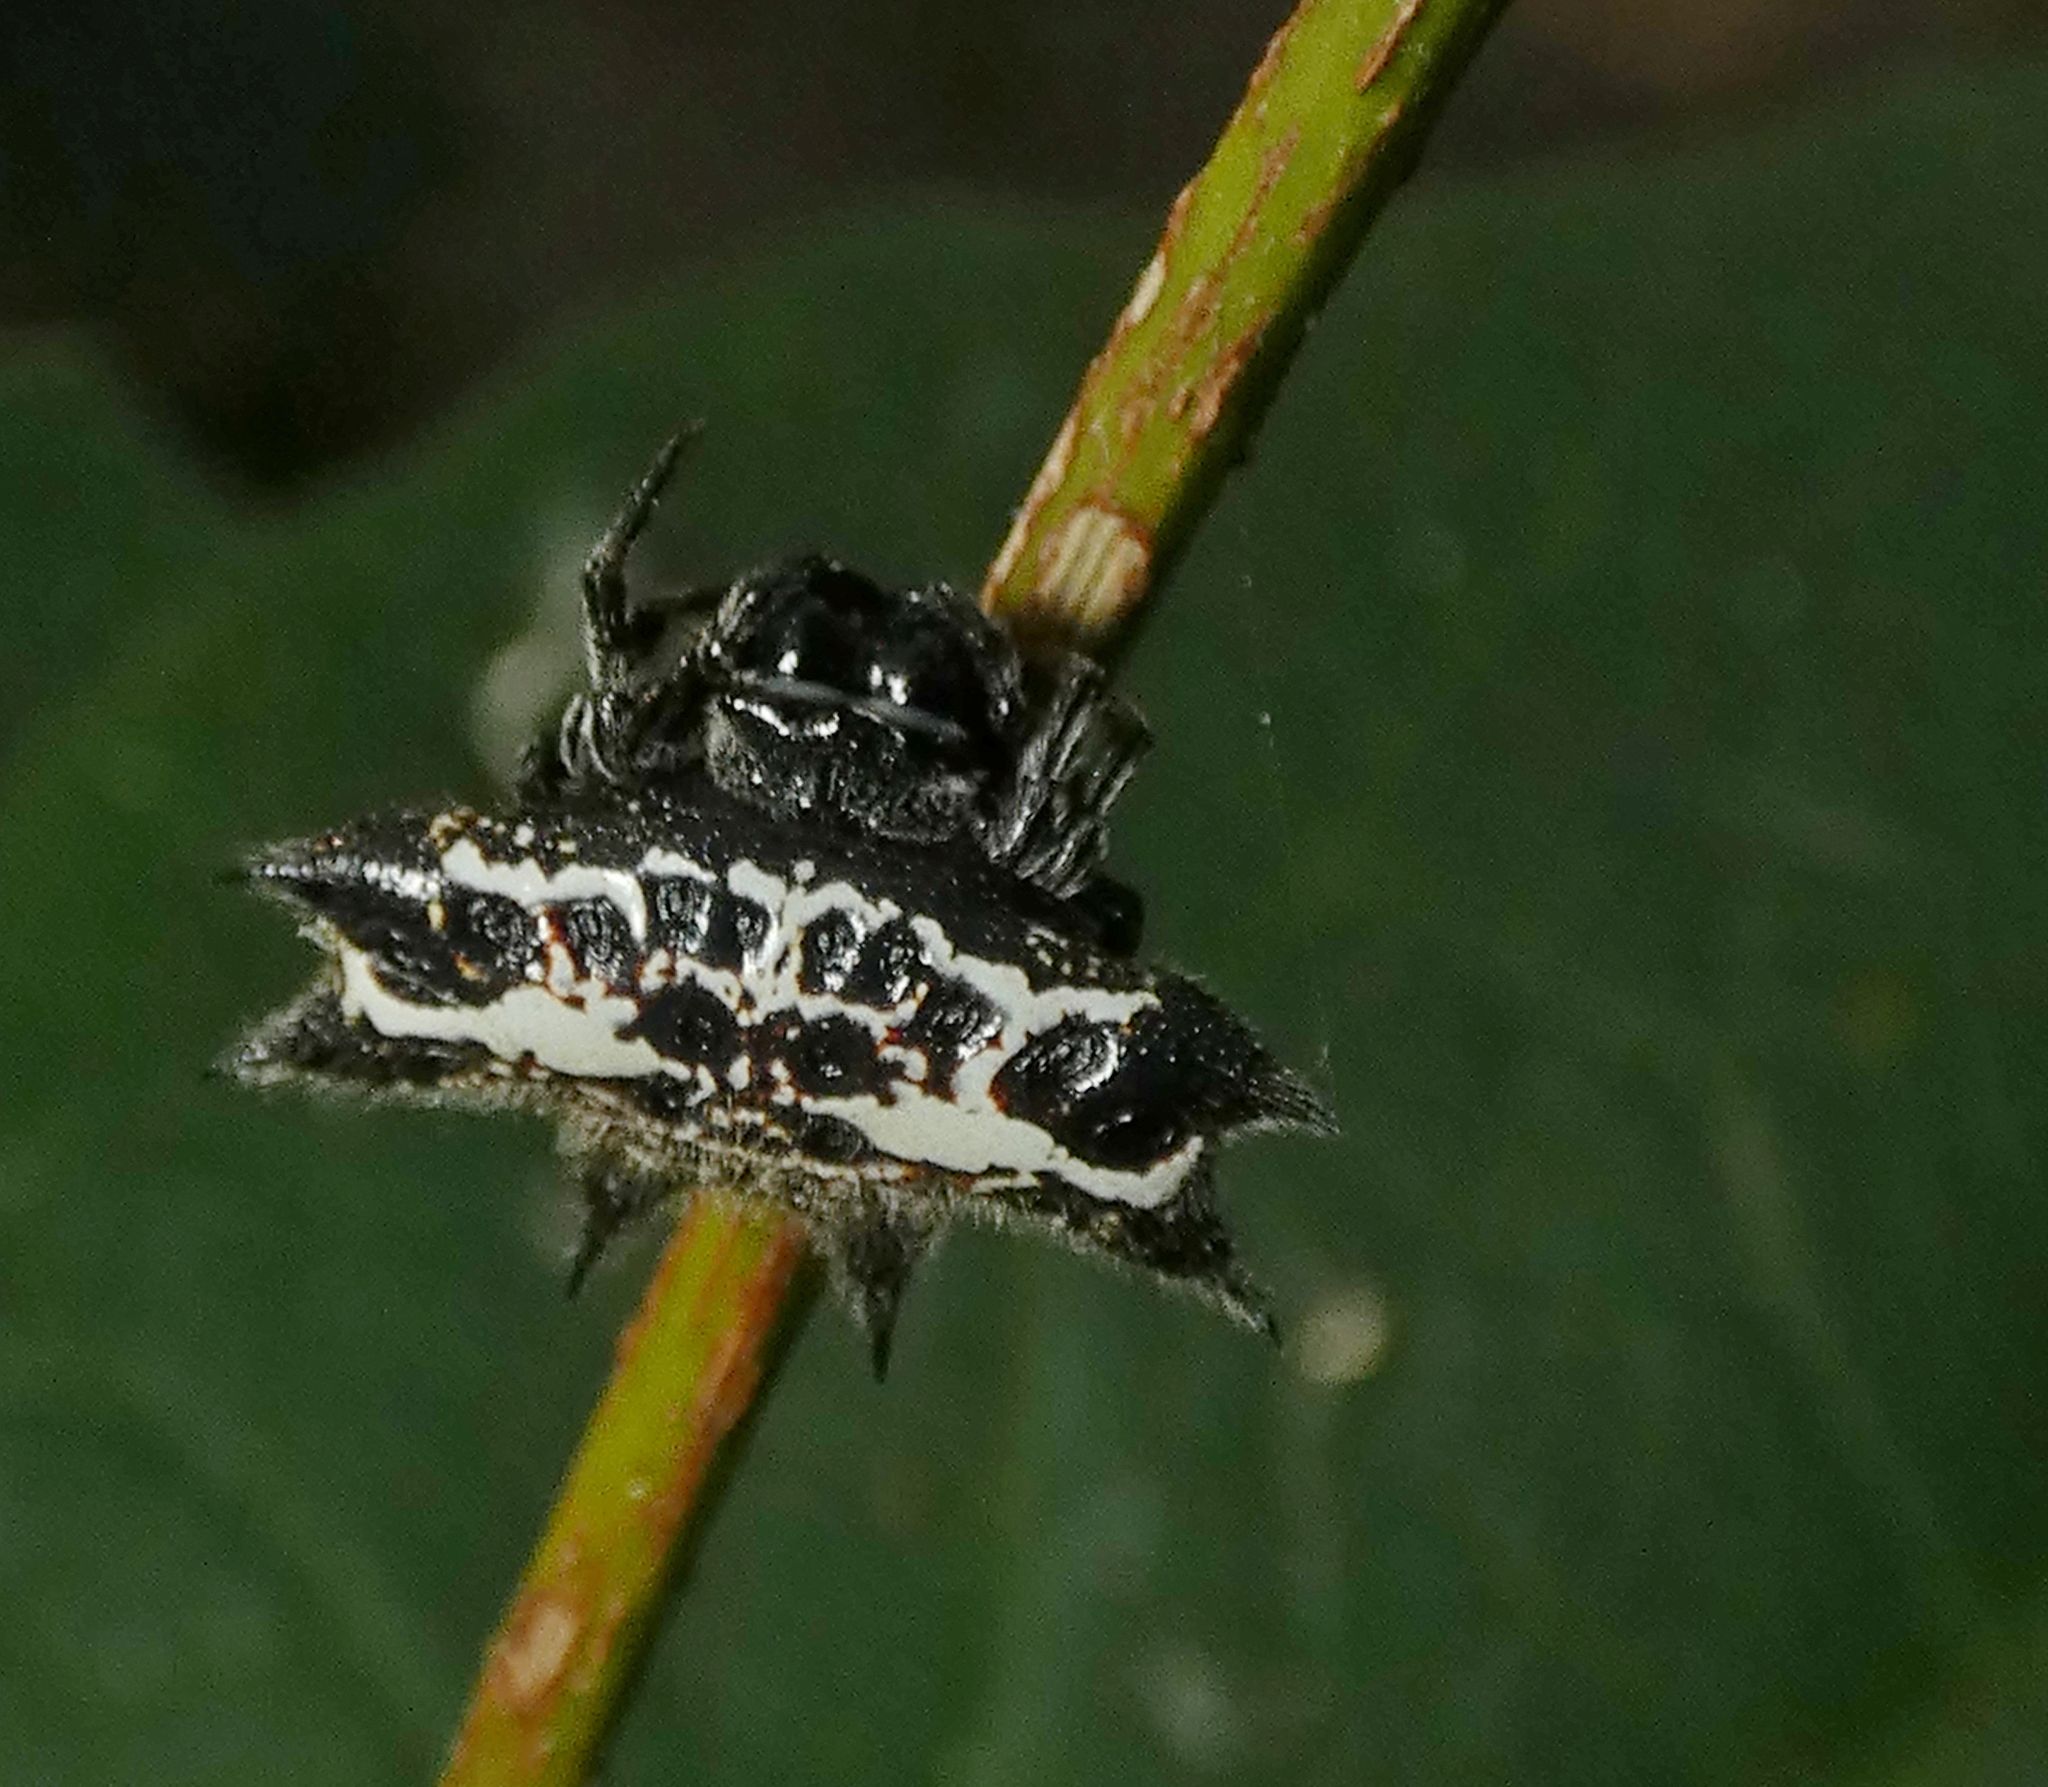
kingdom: Animalia
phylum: Arthropoda
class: Arachnida
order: Araneae
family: Araneidae
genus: Gasteracantha
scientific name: Gasteracantha cancriformis
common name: Orb weavers
